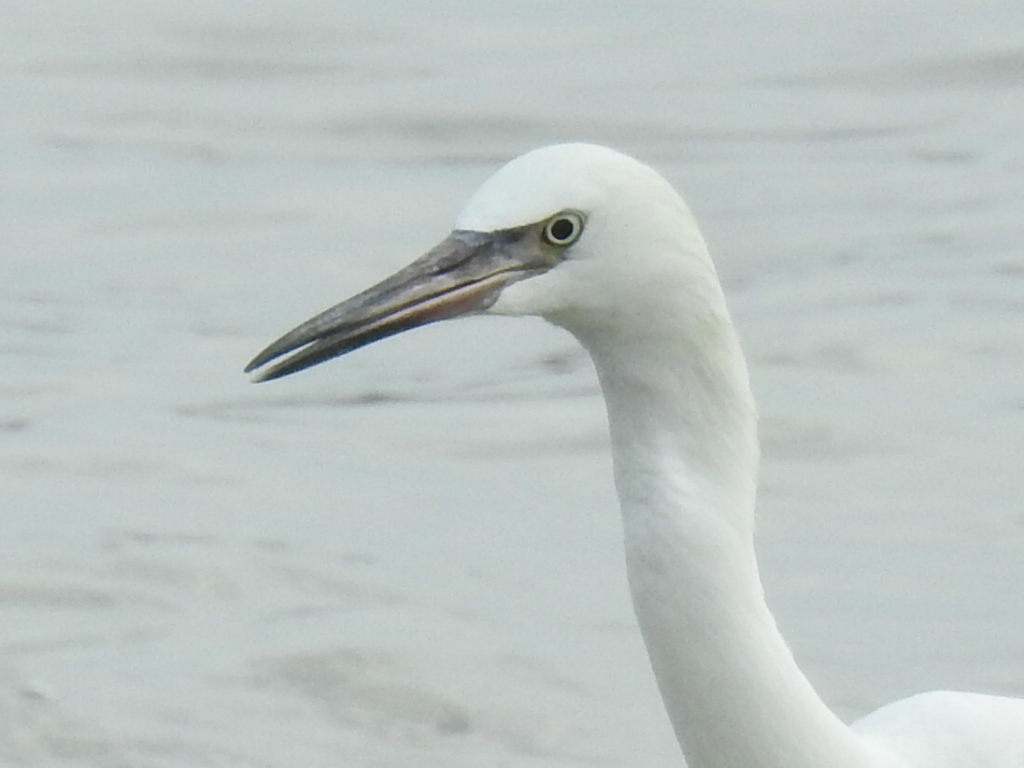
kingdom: Animalia
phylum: Chordata
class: Aves
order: Pelecaniformes
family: Ardeidae
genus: Egretta
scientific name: Egretta rufescens
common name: Reddish egret
